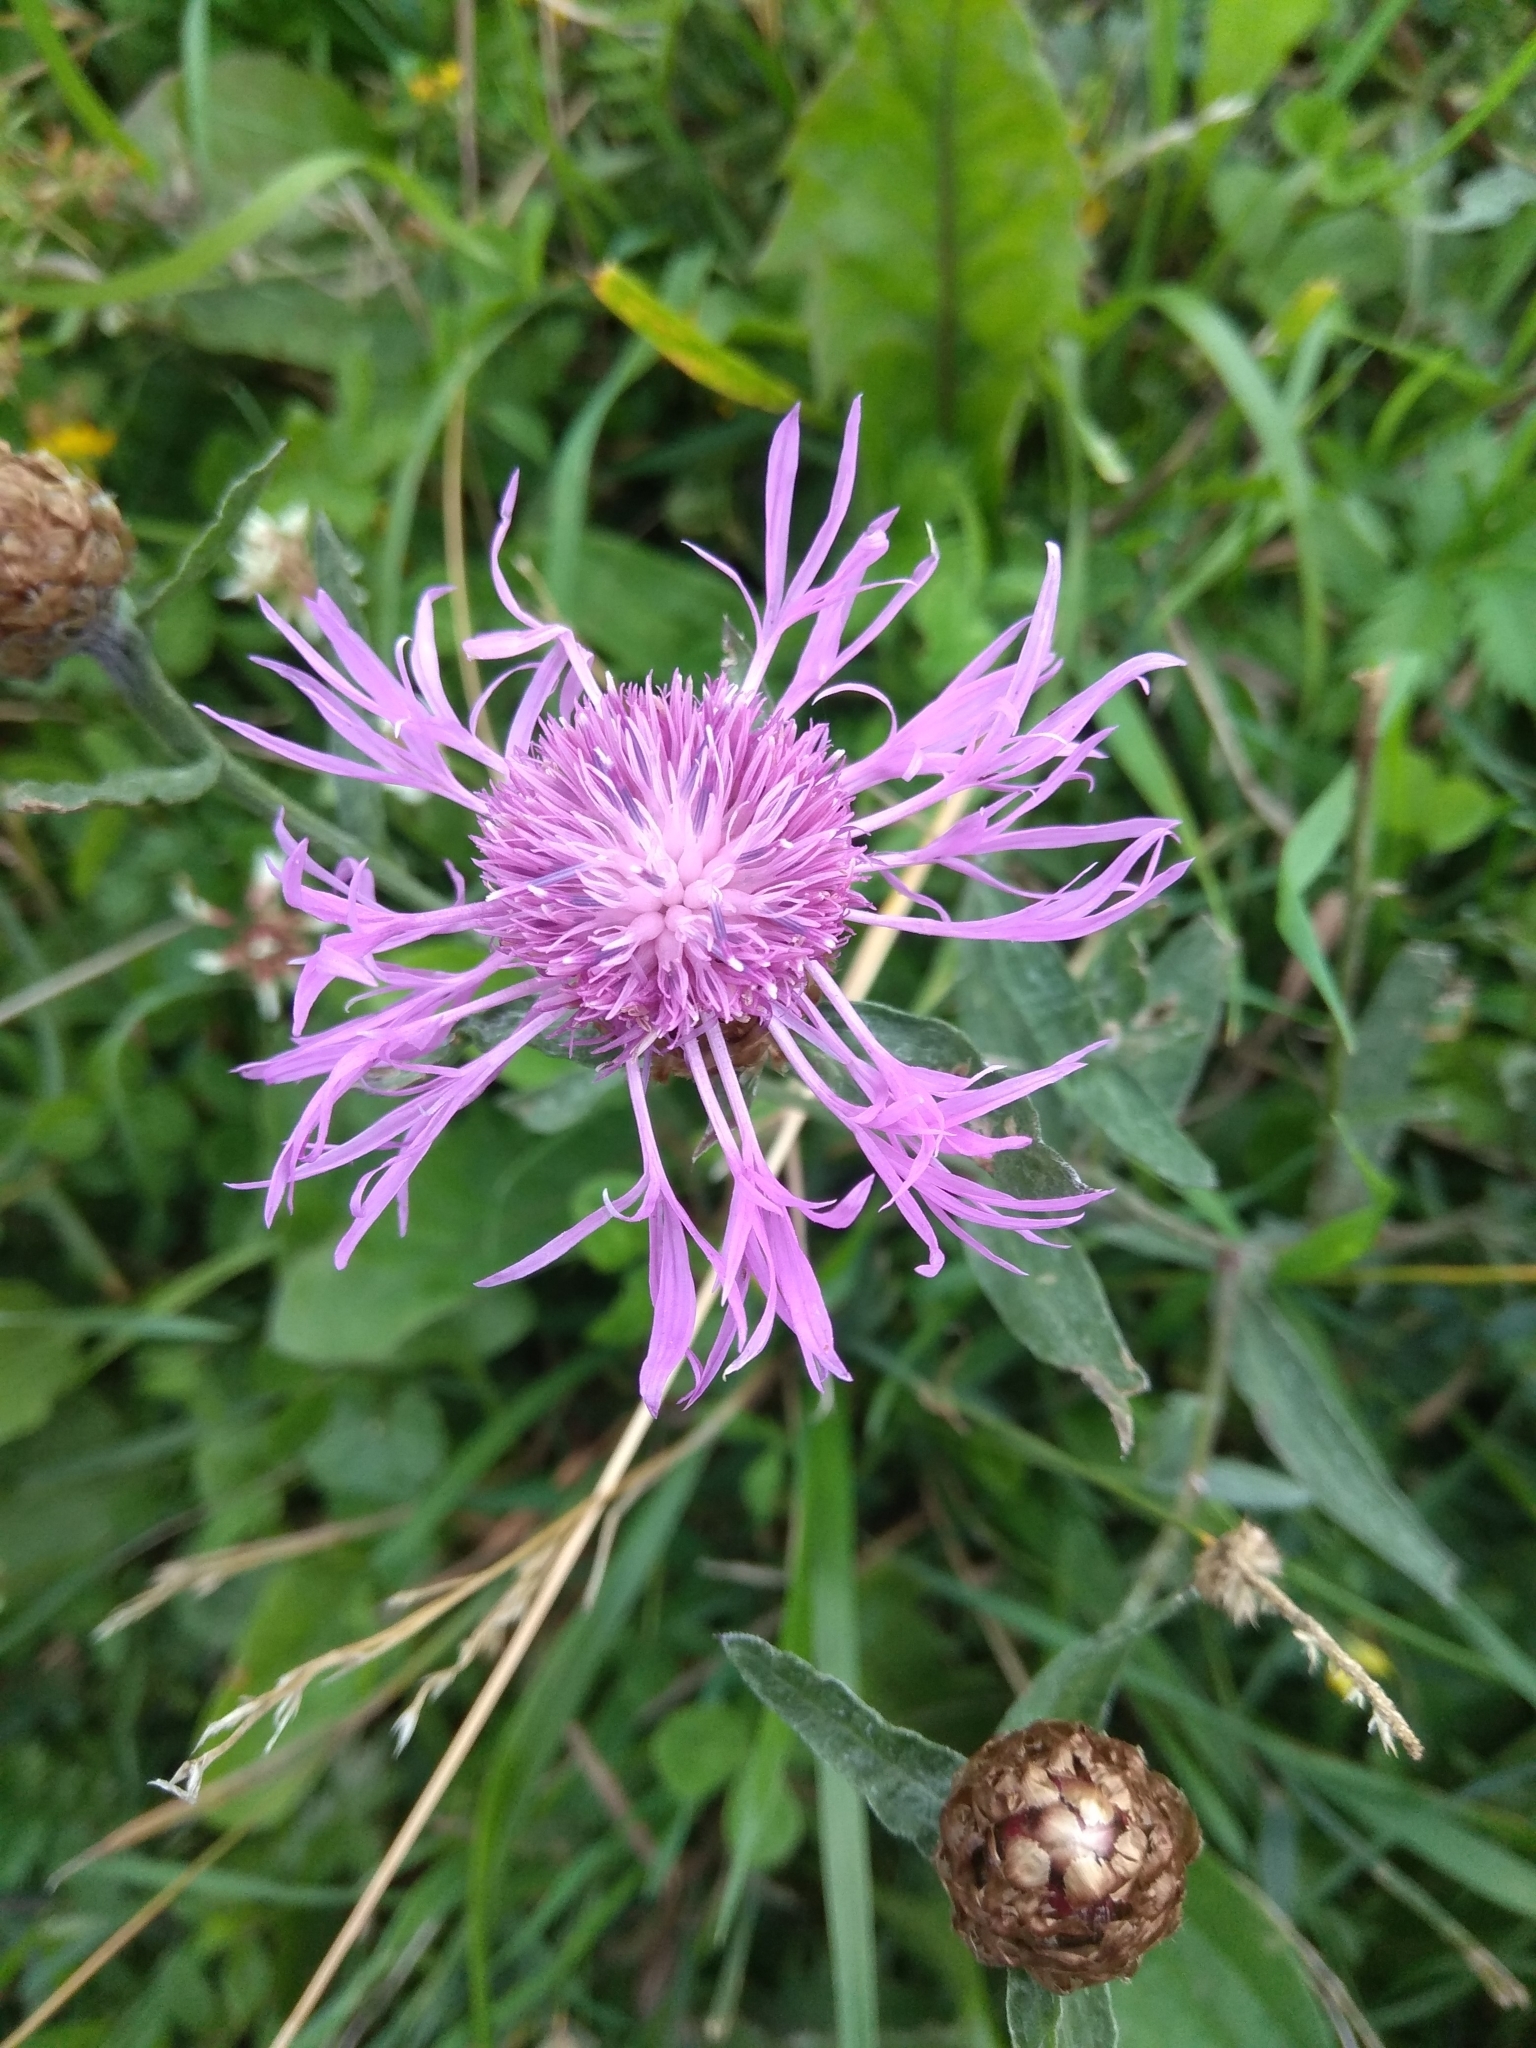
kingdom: Plantae
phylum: Tracheophyta
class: Magnoliopsida
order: Asterales
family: Asteraceae
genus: Centaurea
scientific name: Centaurea jacea
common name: Brown knapweed
